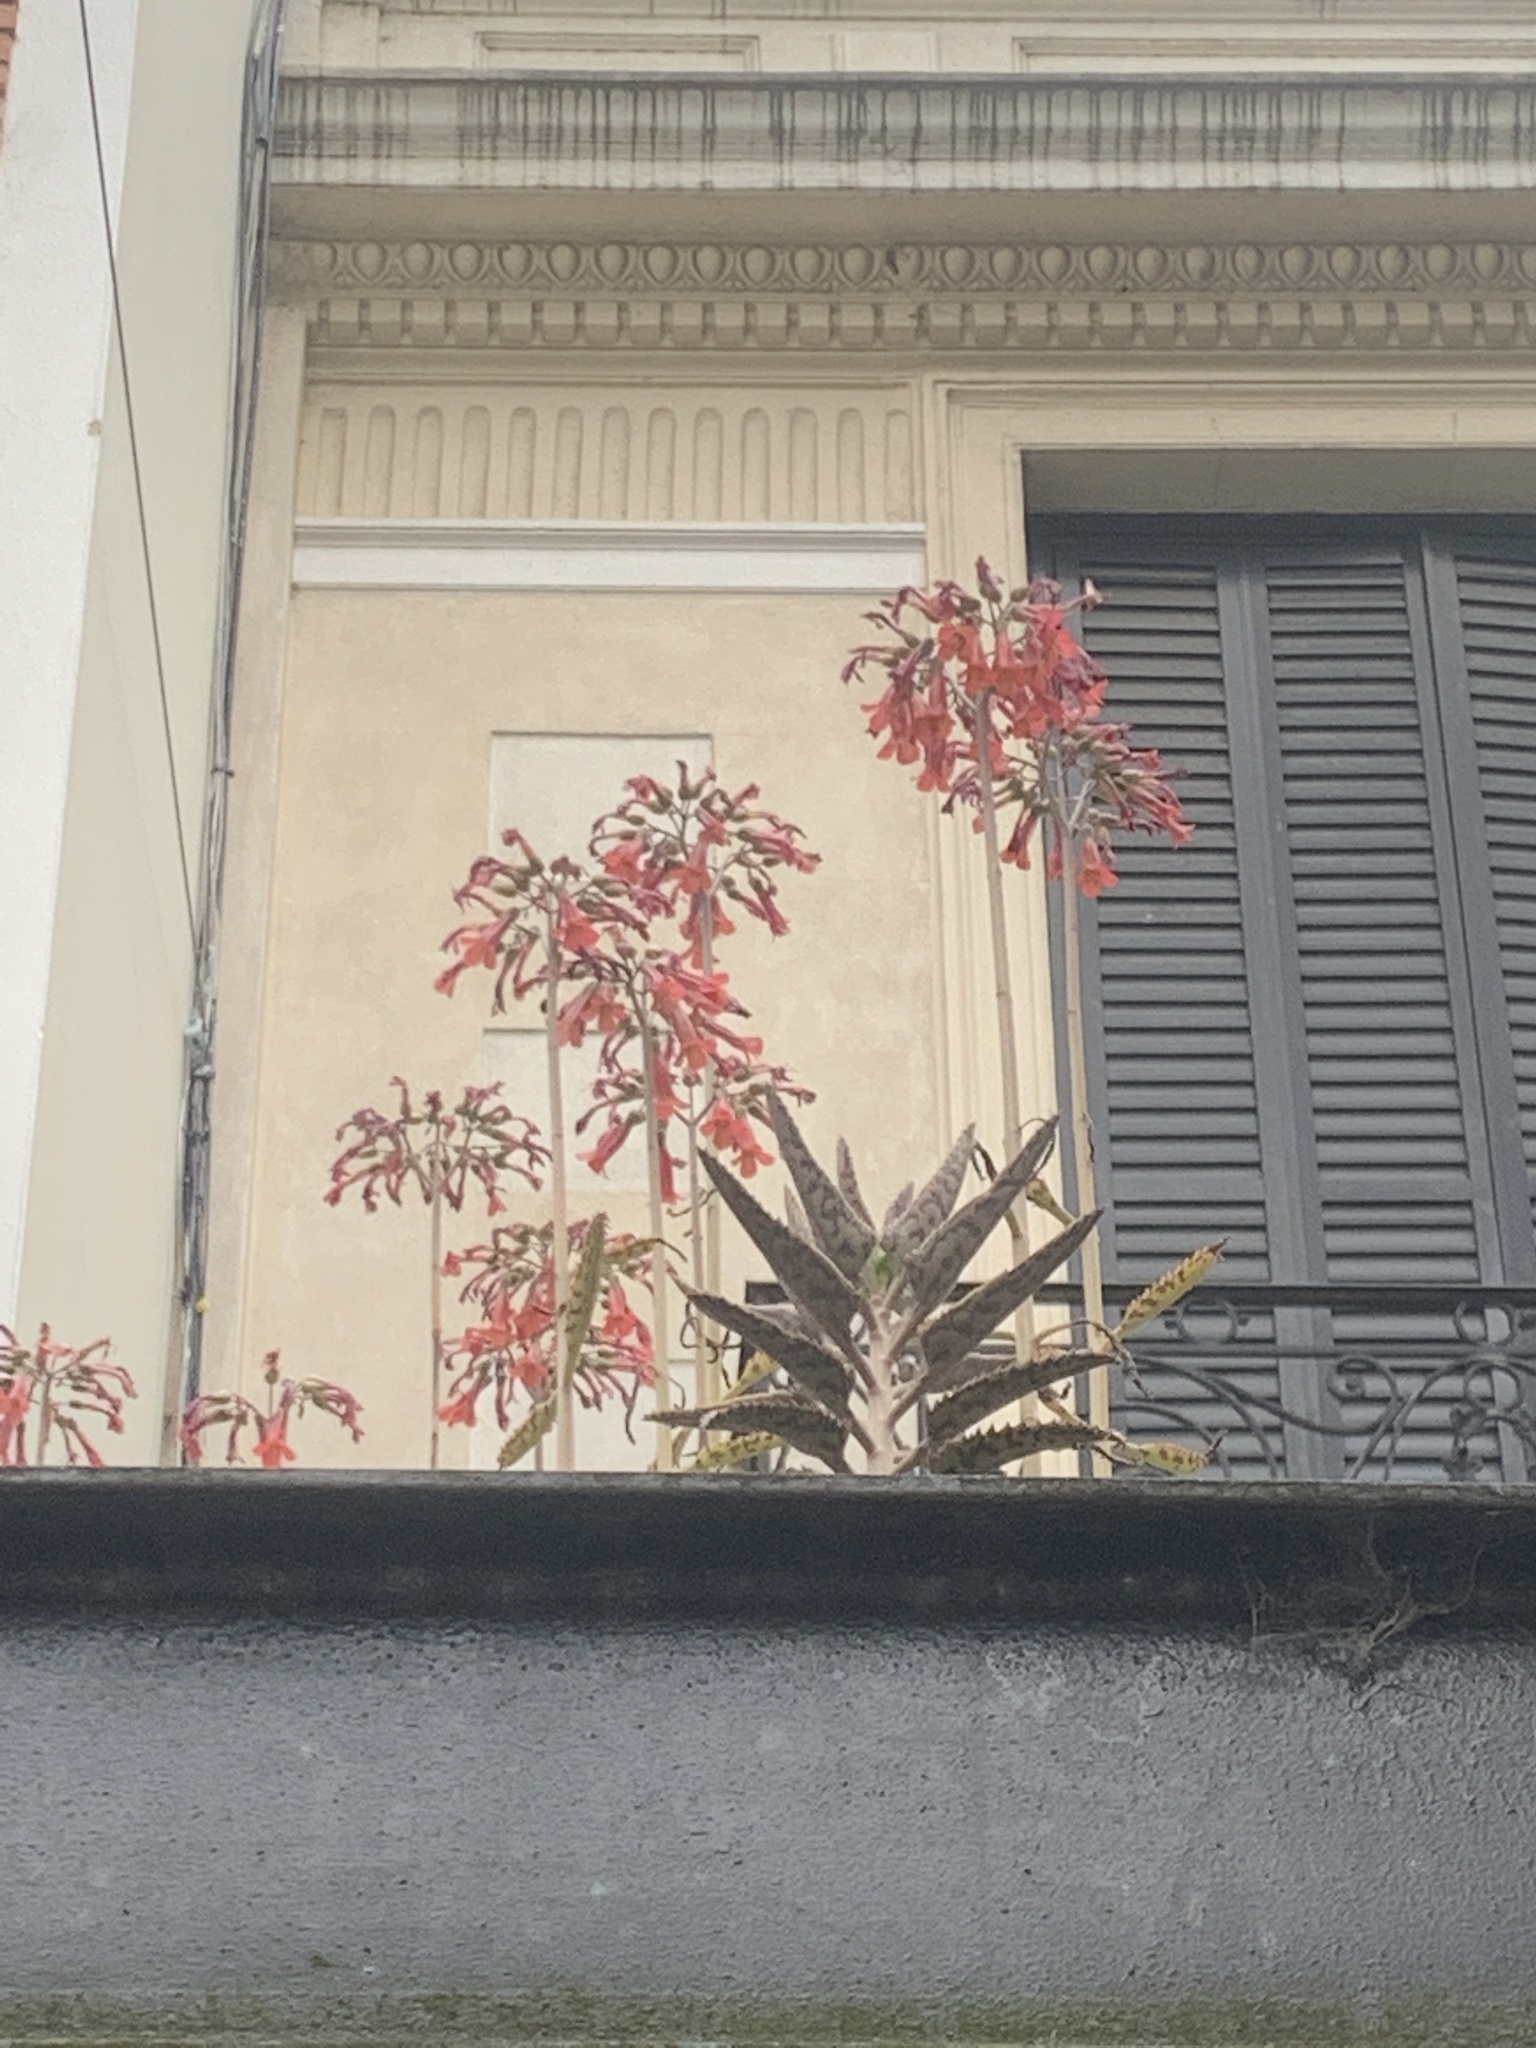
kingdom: Plantae
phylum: Tracheophyta
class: Magnoliopsida
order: Saxifragales
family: Crassulaceae
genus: Kalanchoe
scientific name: Kalanchoe houghtonii
